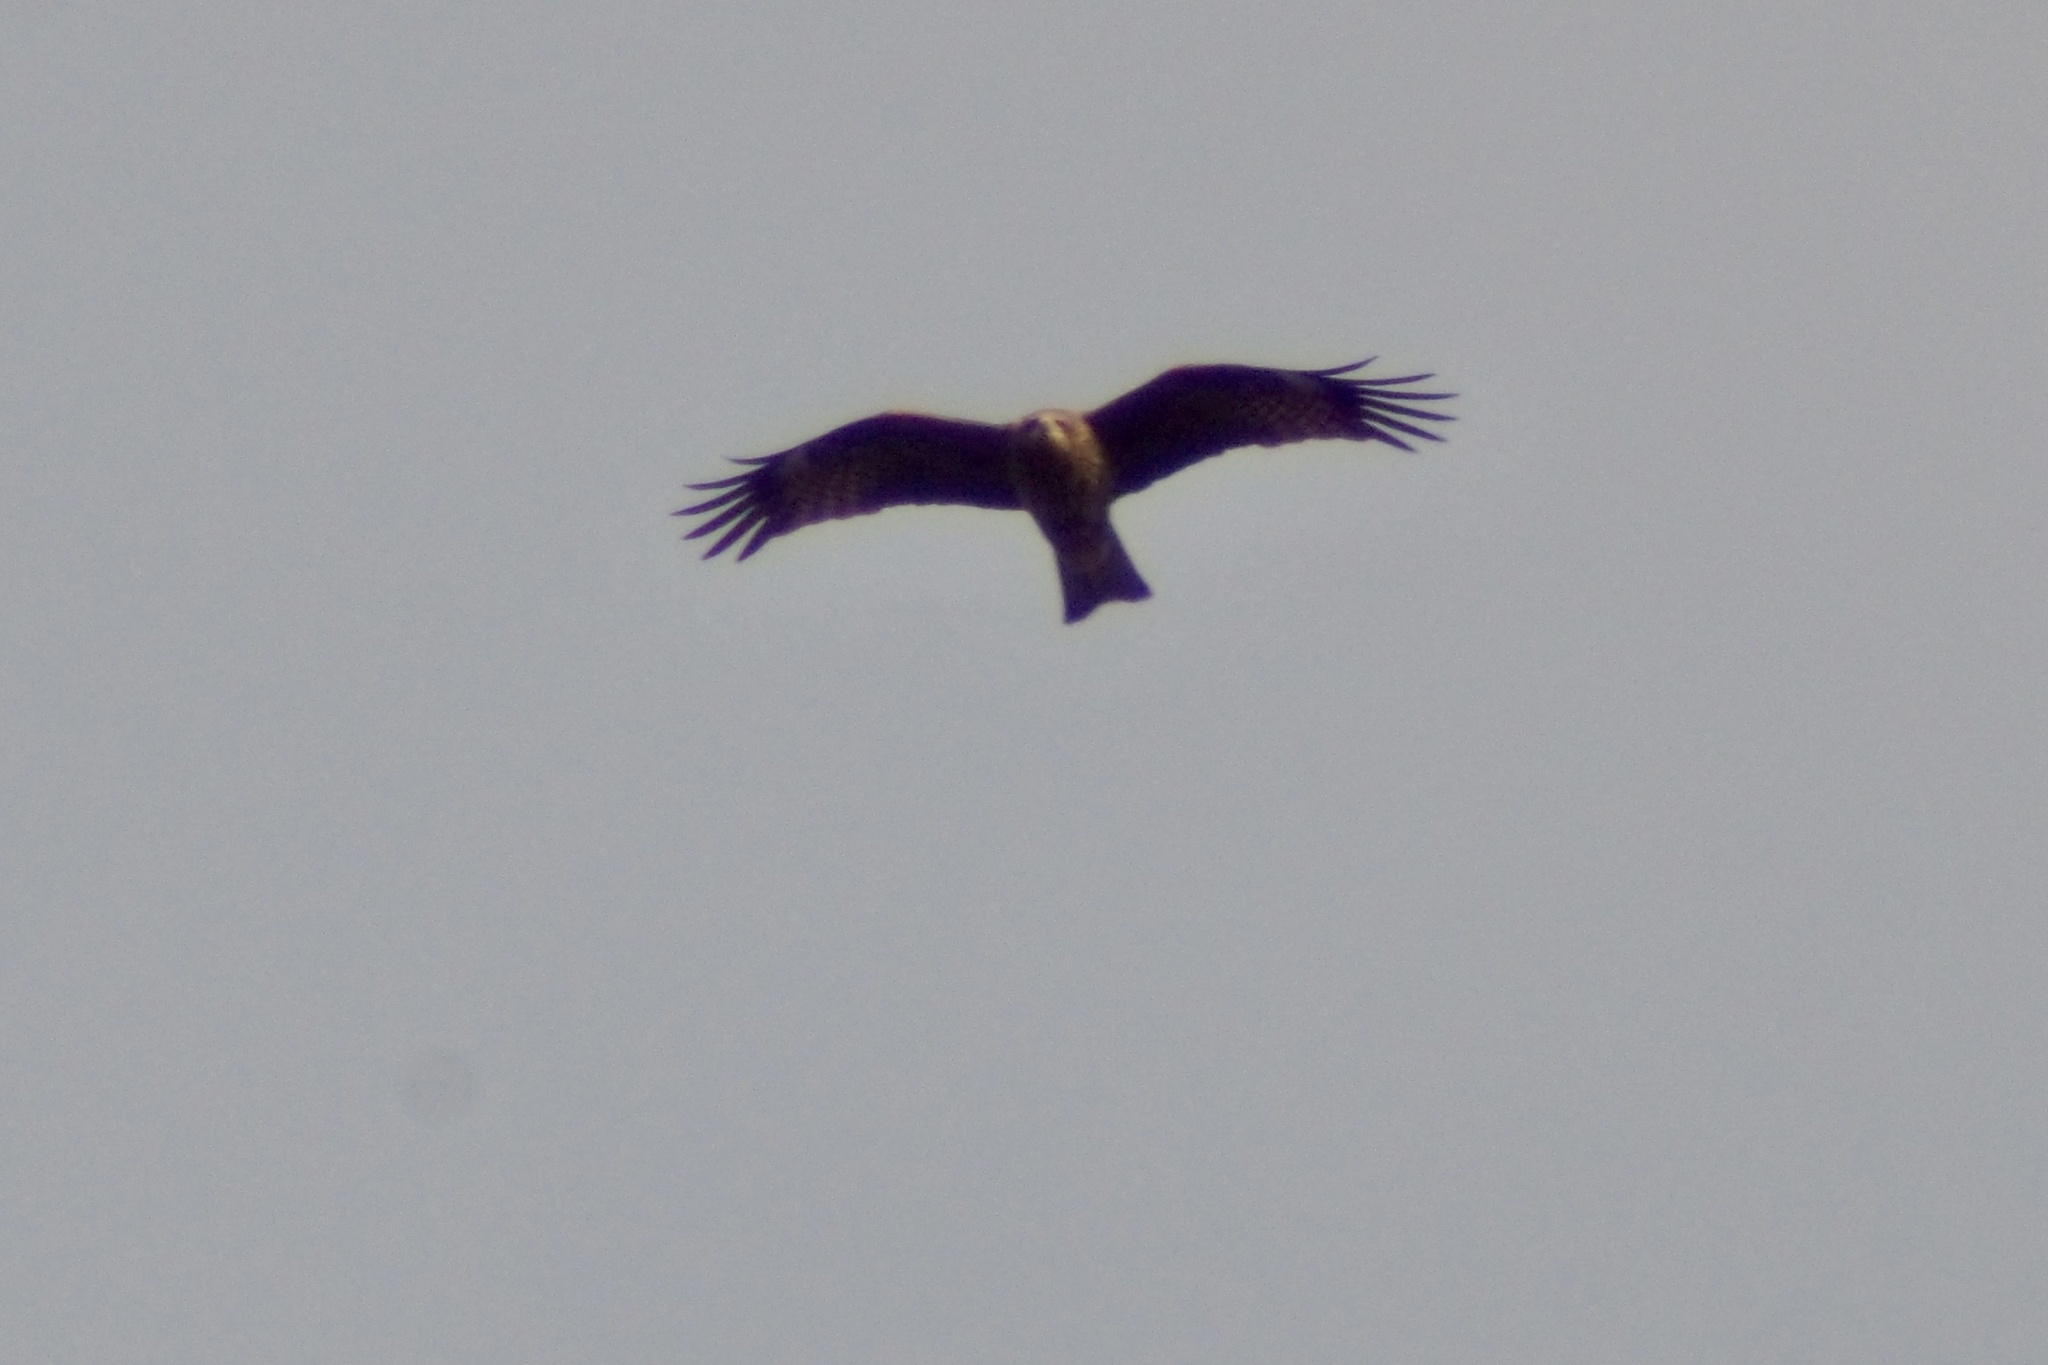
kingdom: Animalia
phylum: Chordata
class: Aves
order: Accipitriformes
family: Accipitridae
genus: Milvus
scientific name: Milvus migrans
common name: Black kite
